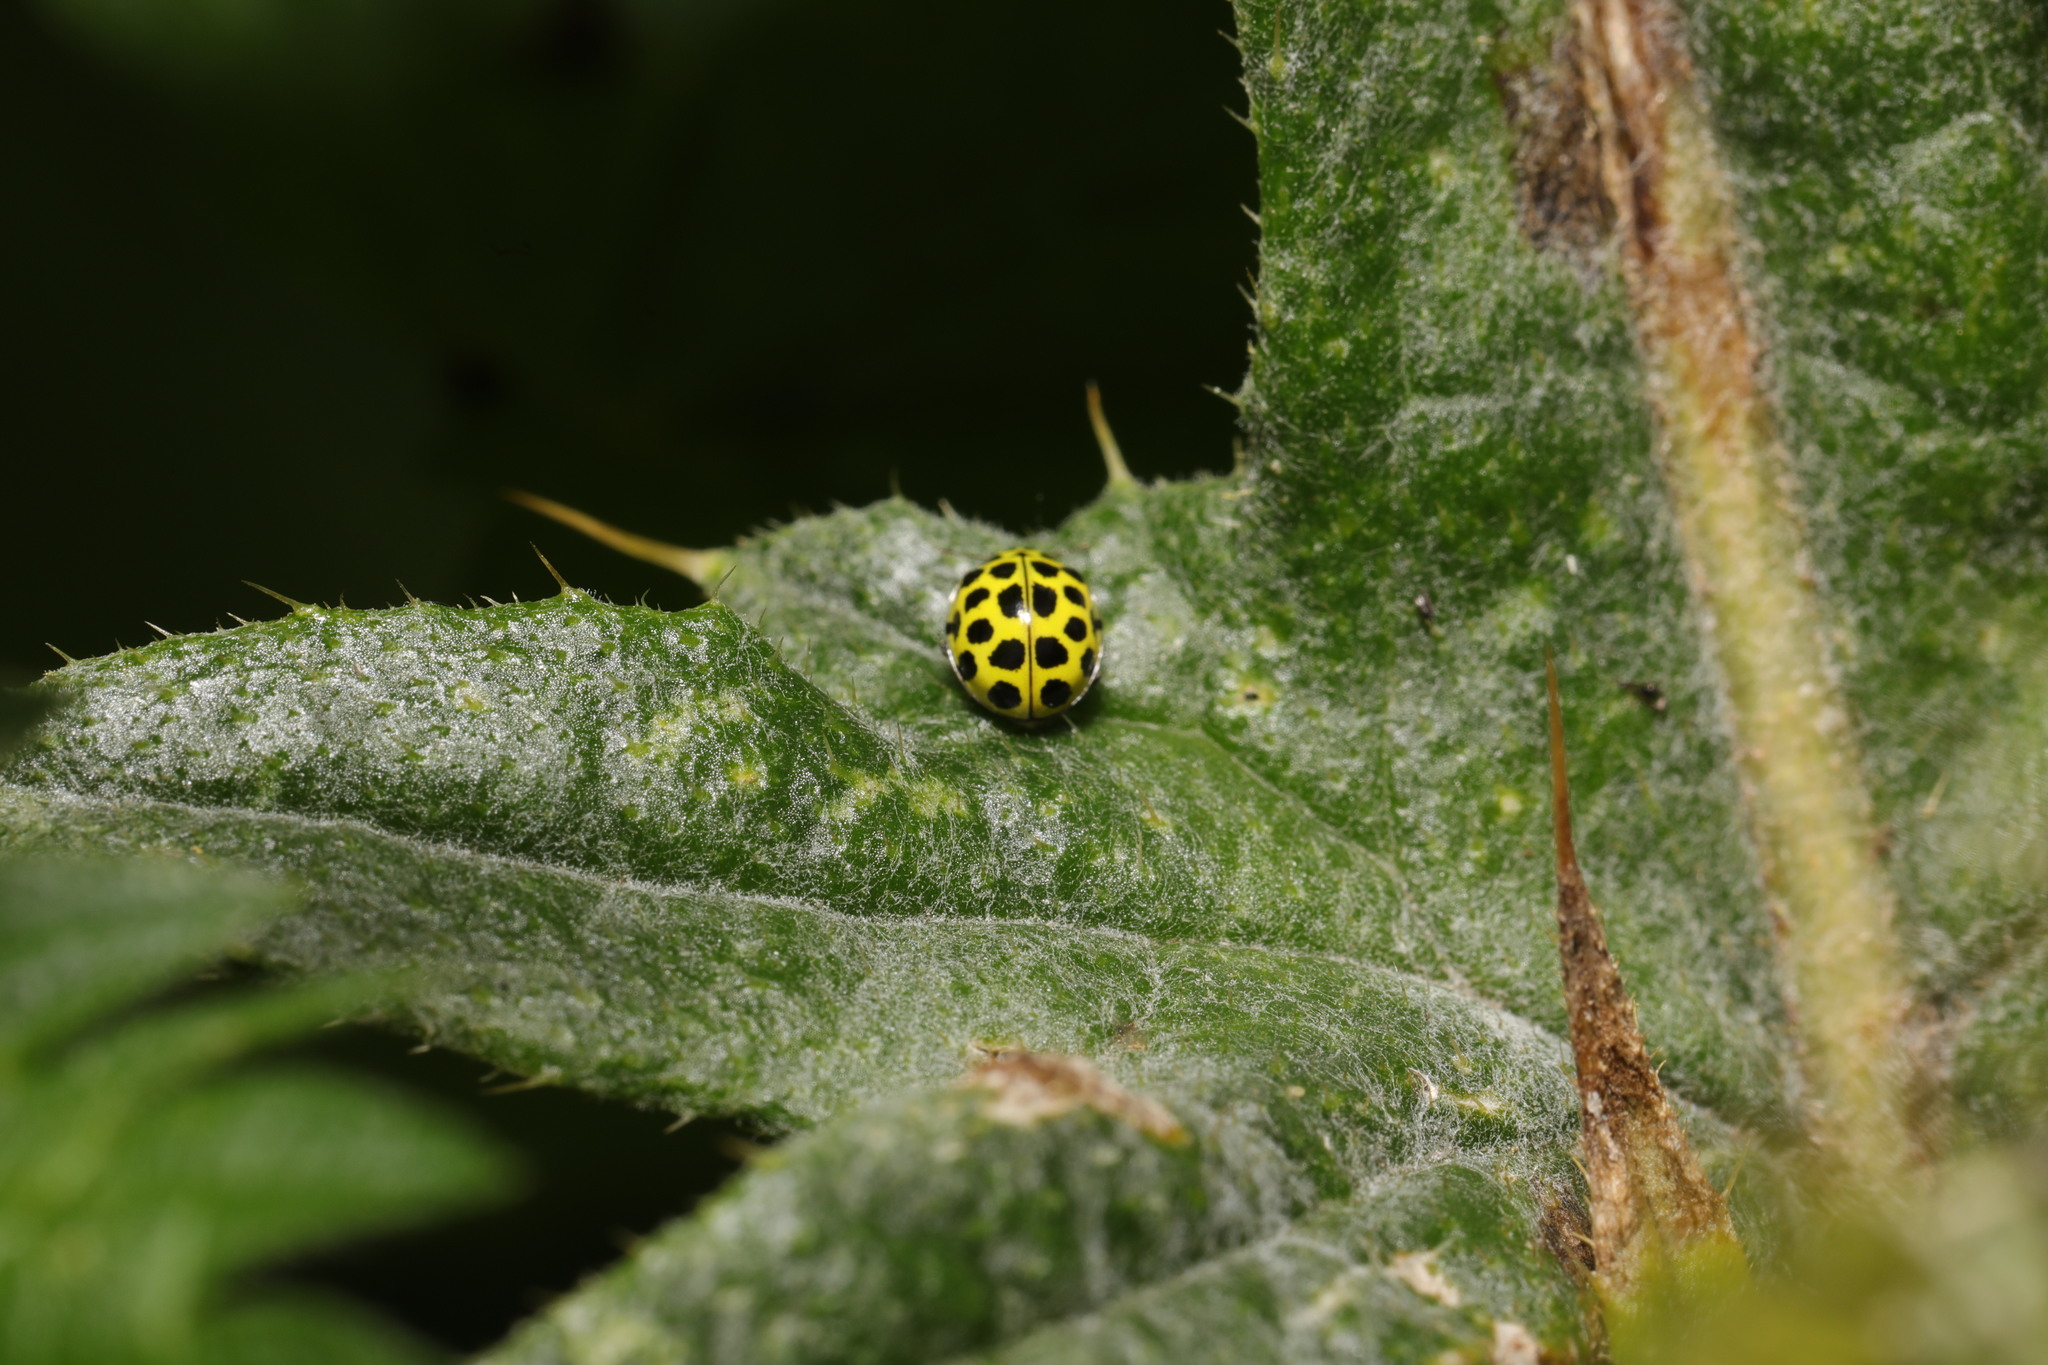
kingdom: Animalia
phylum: Arthropoda
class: Insecta
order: Coleoptera
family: Coccinellidae
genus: Psyllobora
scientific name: Psyllobora vigintiduopunctata
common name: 22-spot ladybird
